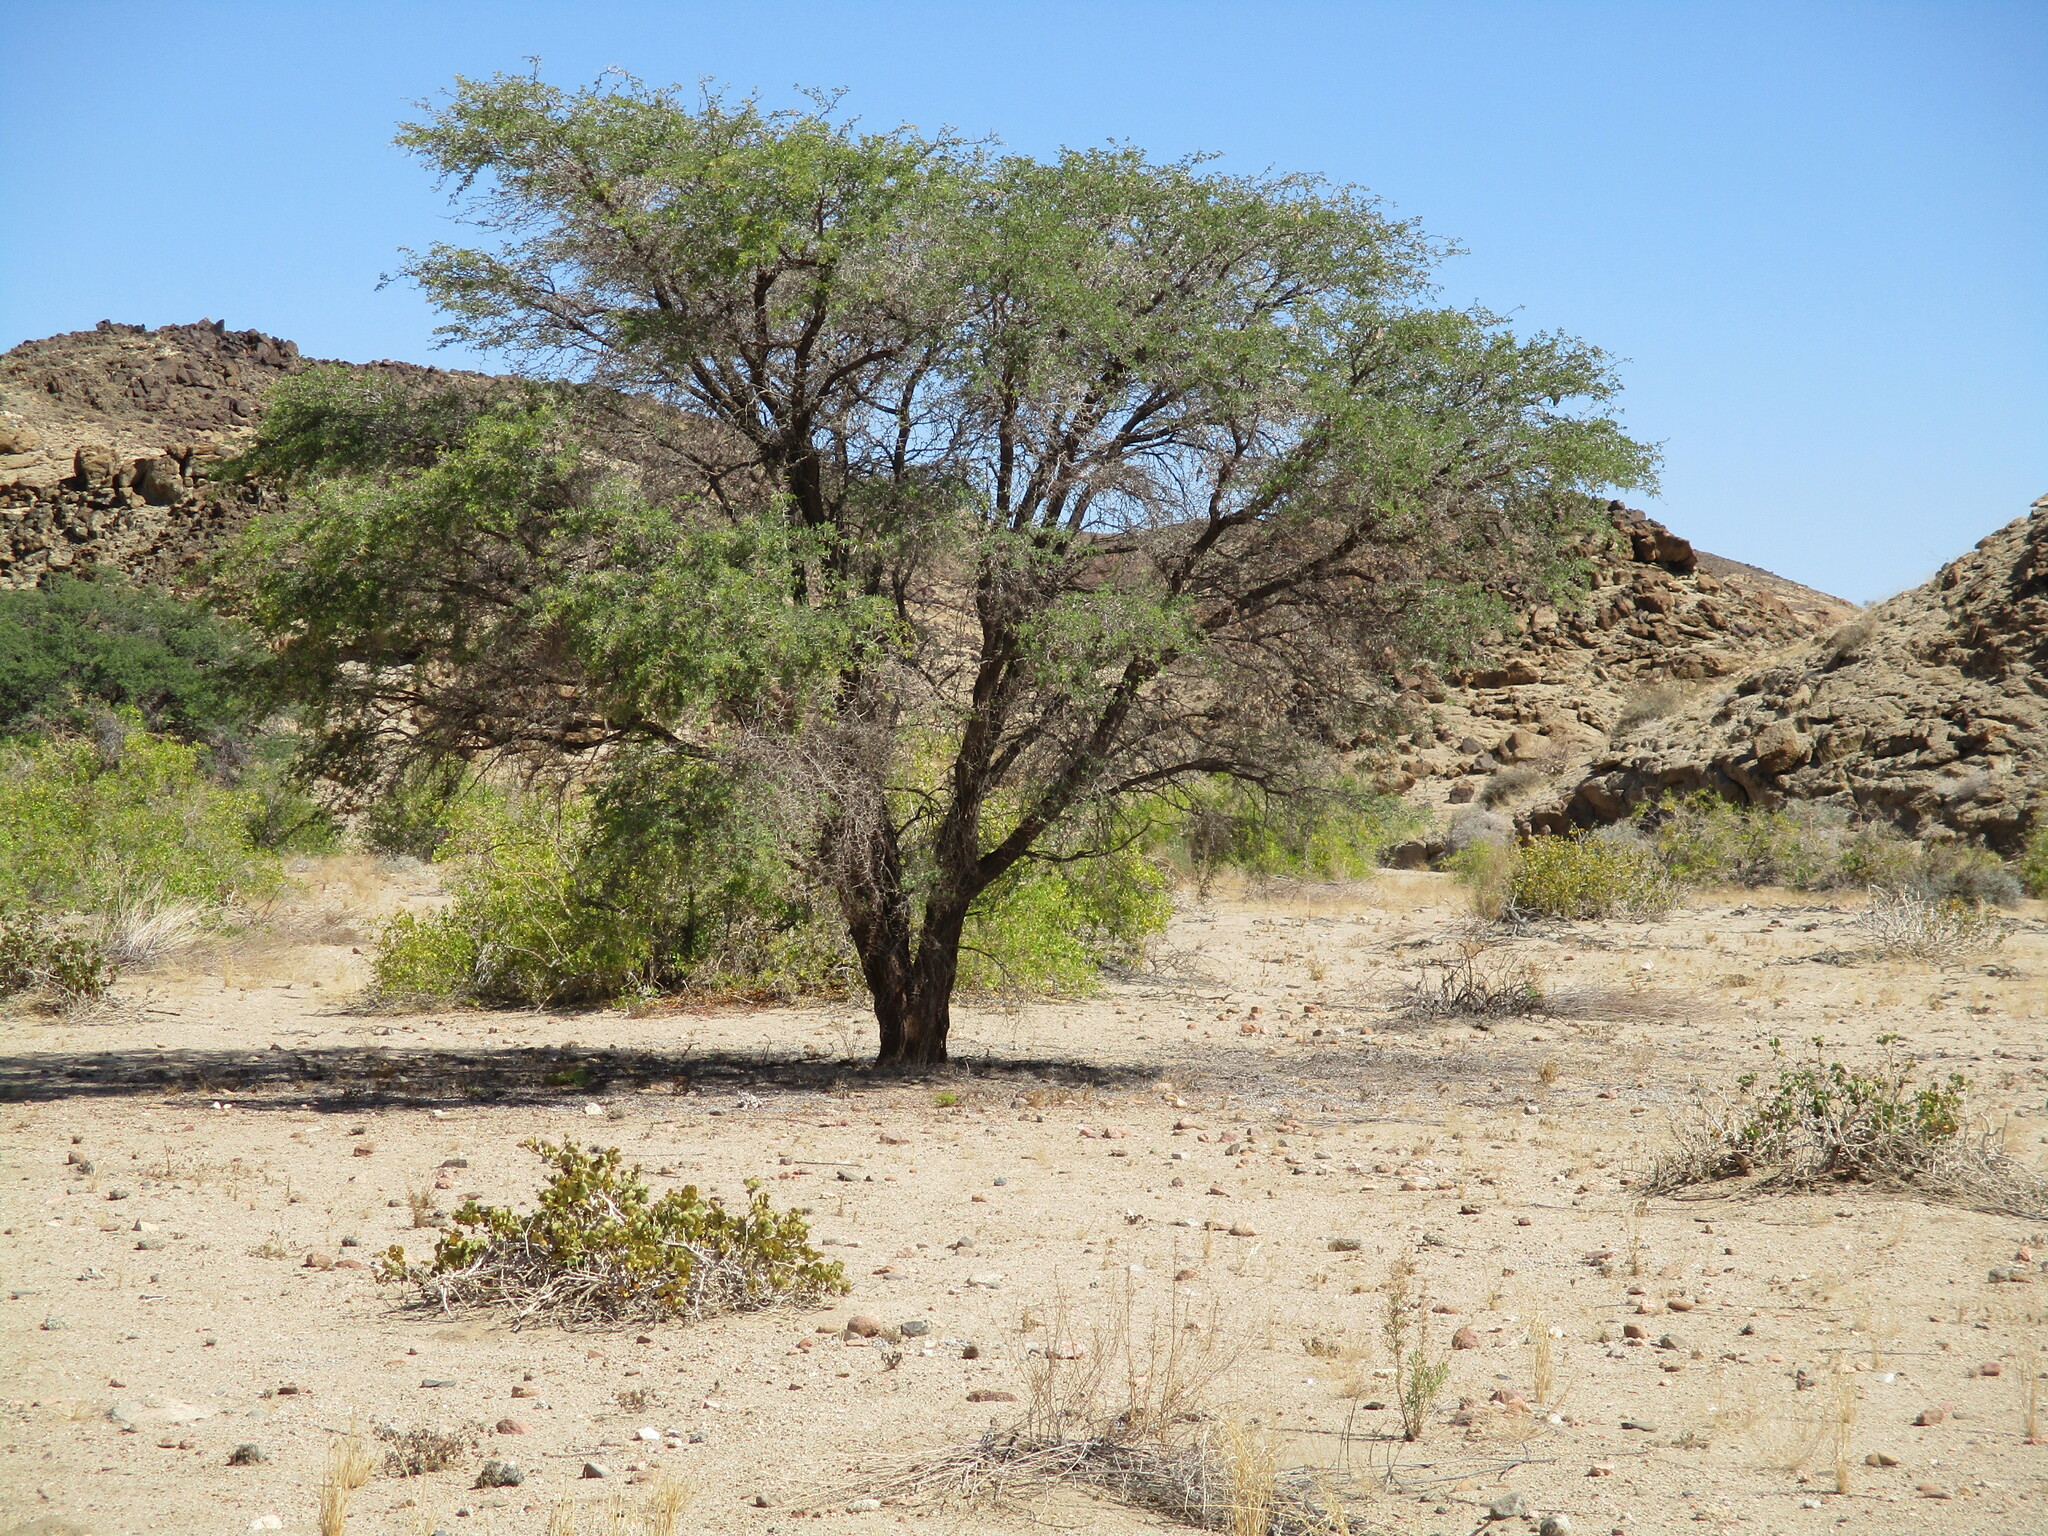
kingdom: Plantae
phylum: Tracheophyta
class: Magnoliopsida
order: Fabales
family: Fabaceae
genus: Vachellia
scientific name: Vachellia erioloba
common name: Camel thorn
